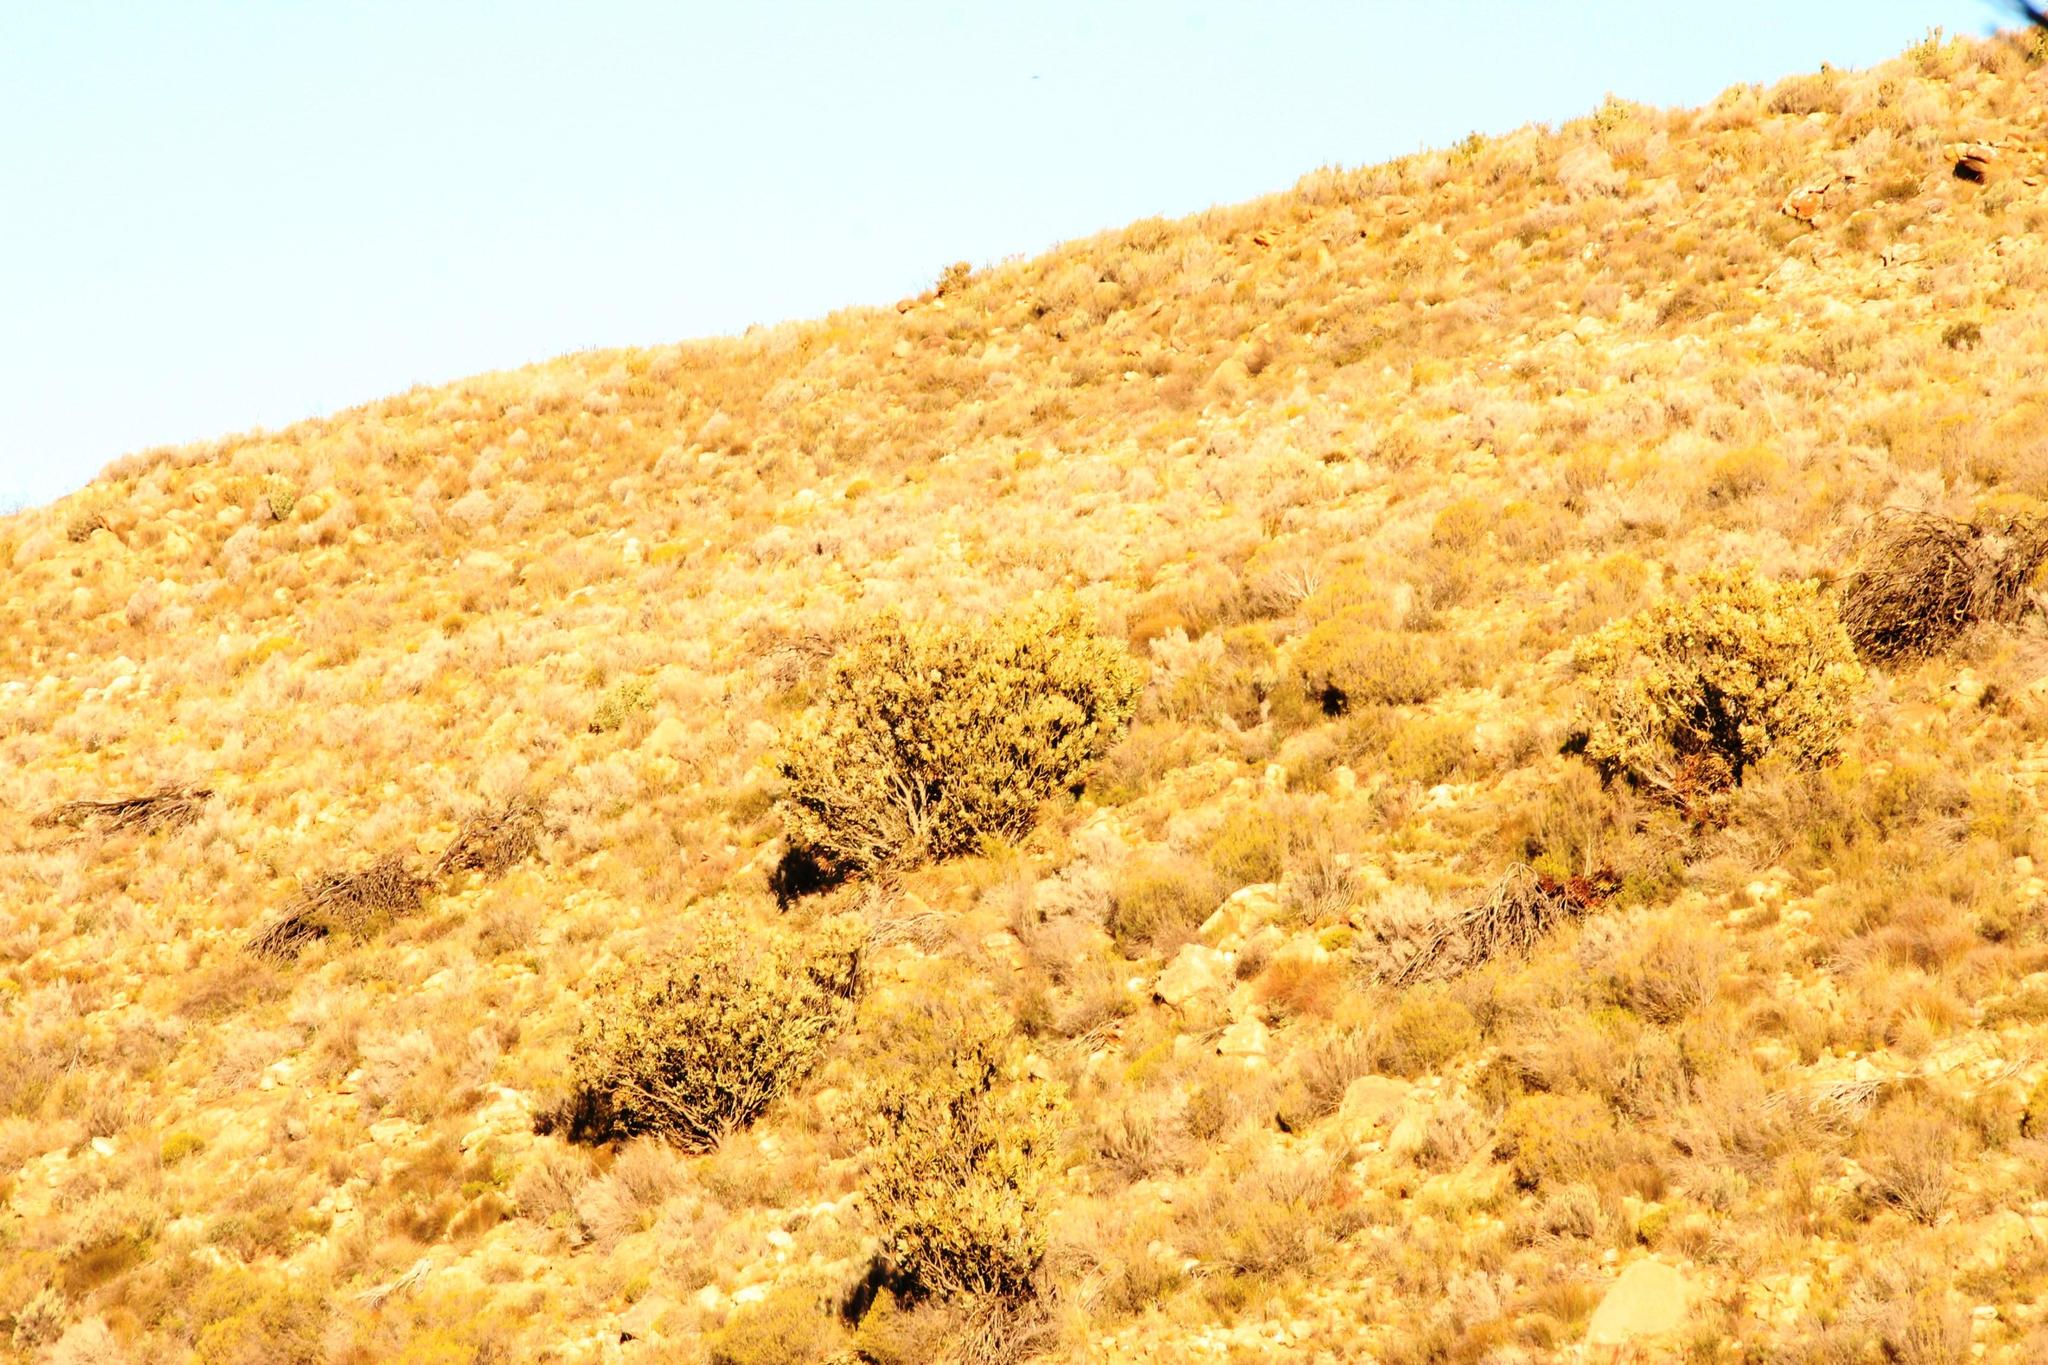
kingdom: Plantae
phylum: Tracheophyta
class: Magnoliopsida
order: Proteales
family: Proteaceae
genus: Protea
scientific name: Protea laurifolia
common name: Grey-leaf sugarbsh
